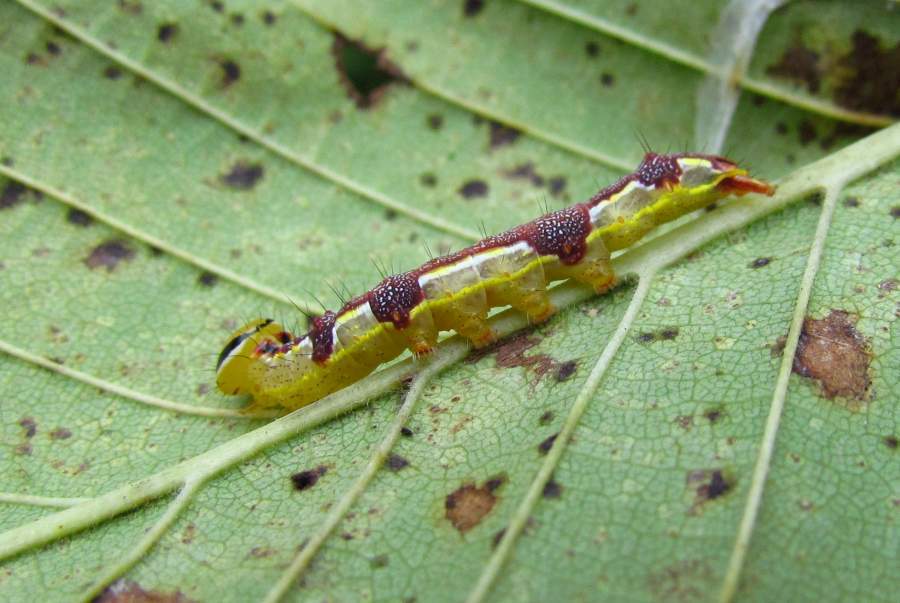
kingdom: Animalia
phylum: Arthropoda
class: Insecta
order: Lepidoptera
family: Notodontidae
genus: Lochmaeus
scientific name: Lochmaeus bilineata
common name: Double-lined prominent
